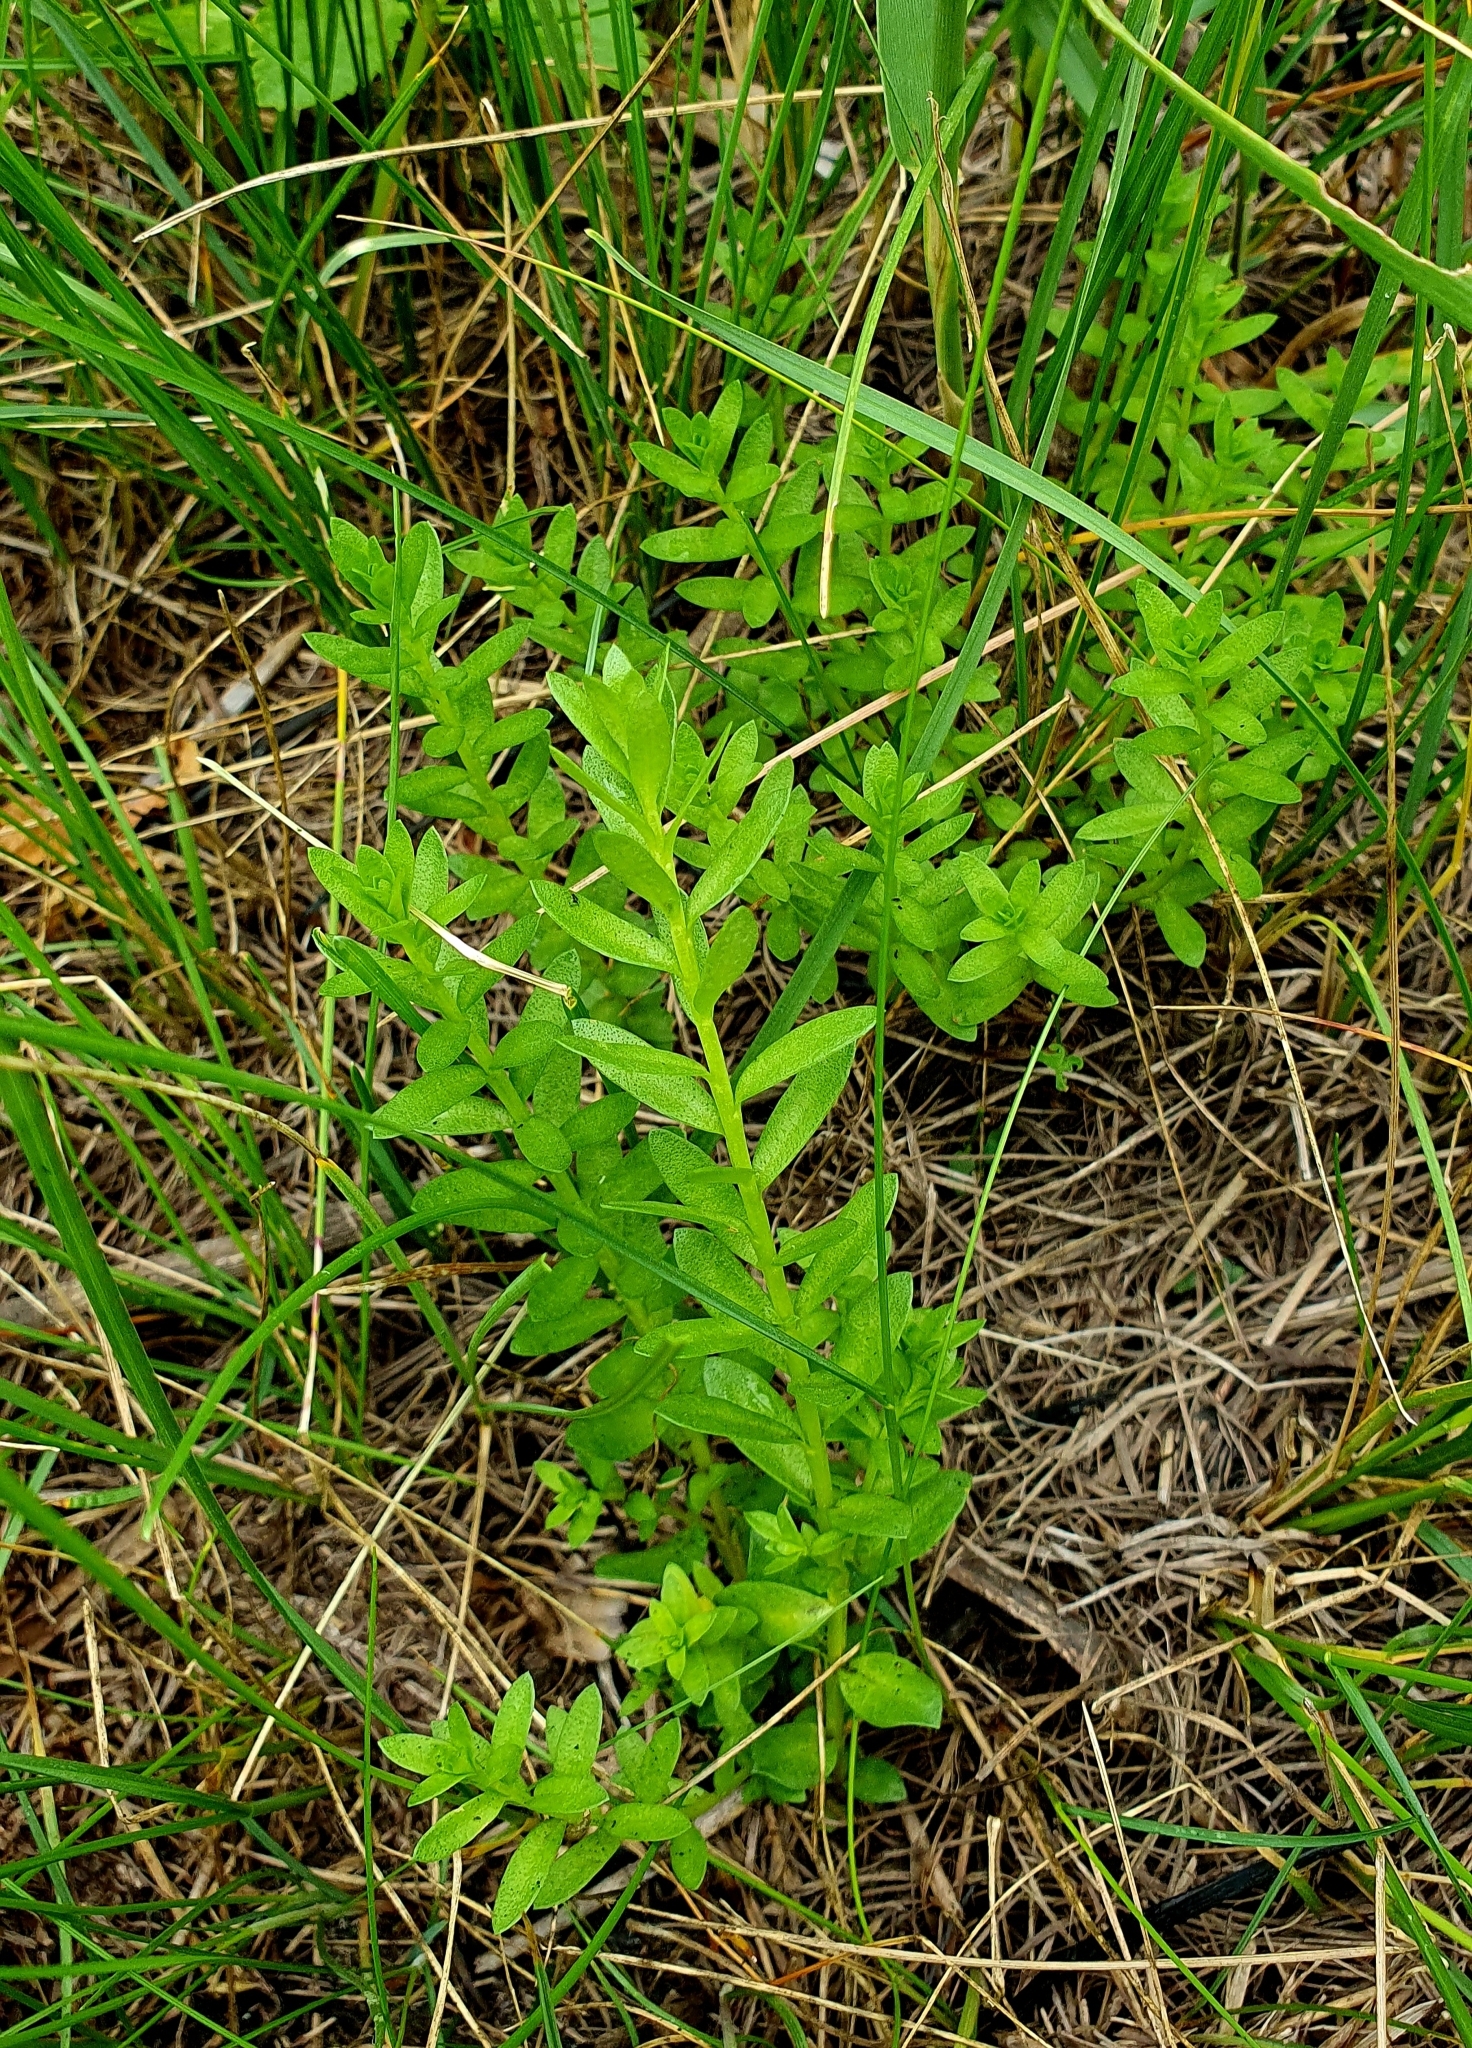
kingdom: Plantae
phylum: Tracheophyta
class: Magnoliopsida
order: Ericales
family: Primulaceae
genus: Lysimachia
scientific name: Lysimachia maritima
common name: Sea milkwort
